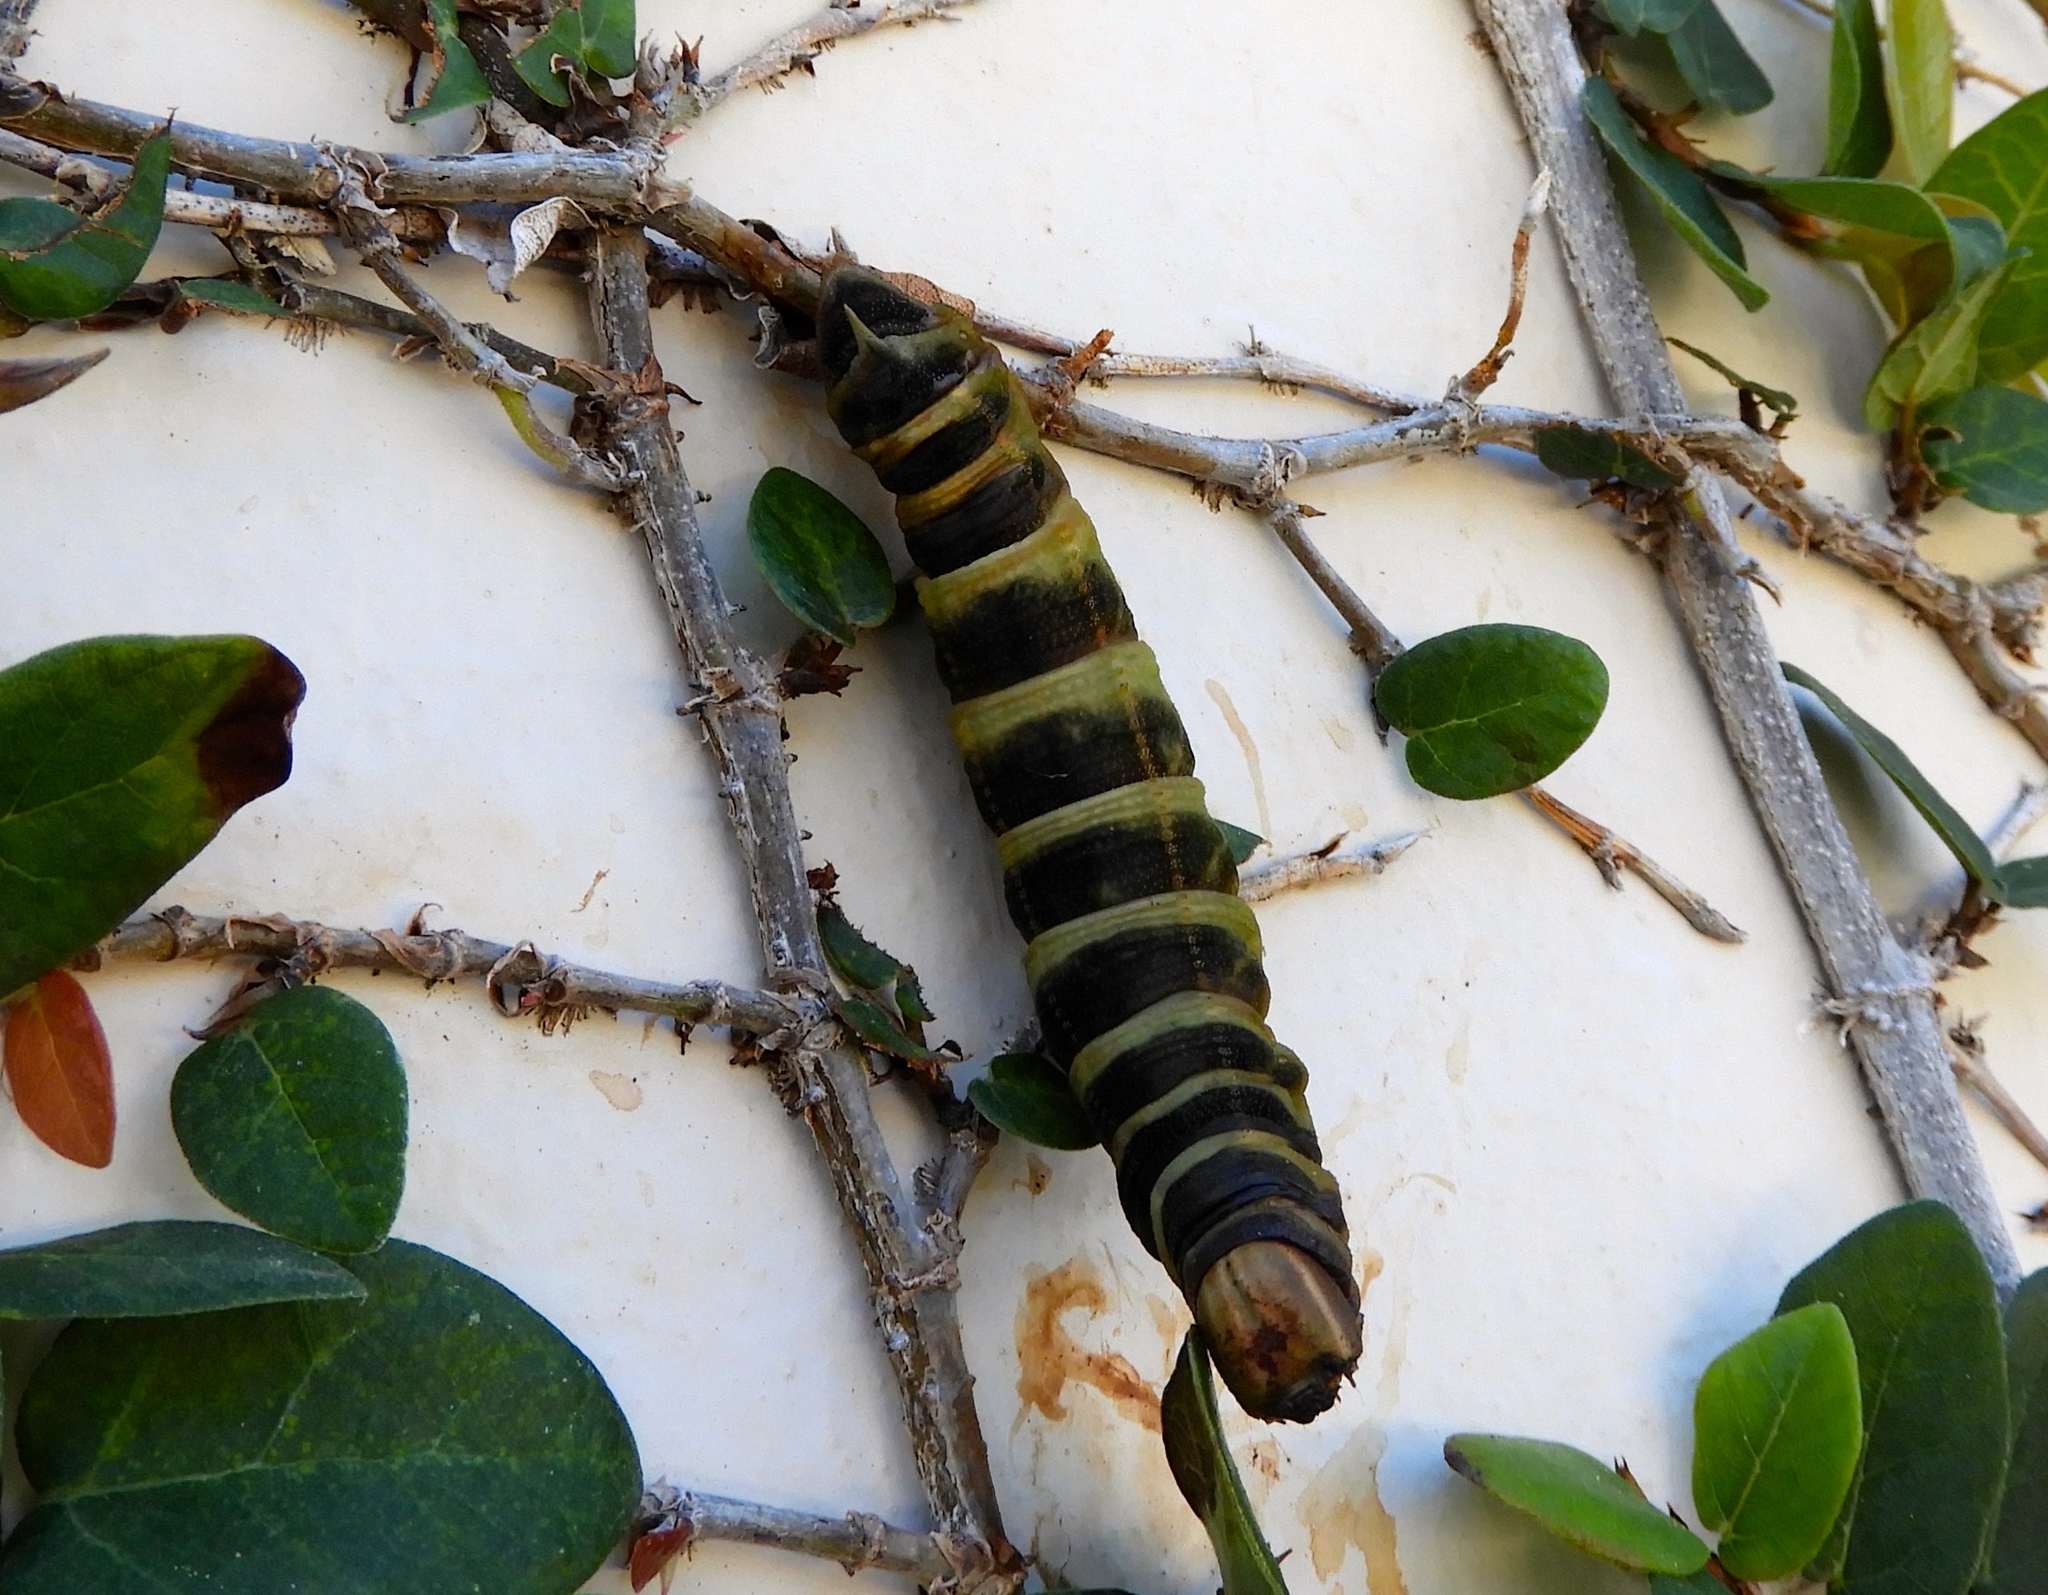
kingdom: Animalia
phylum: Arthropoda
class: Insecta
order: Lepidoptera
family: Sphingidae
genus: Pachylia
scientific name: Pachylia syces
